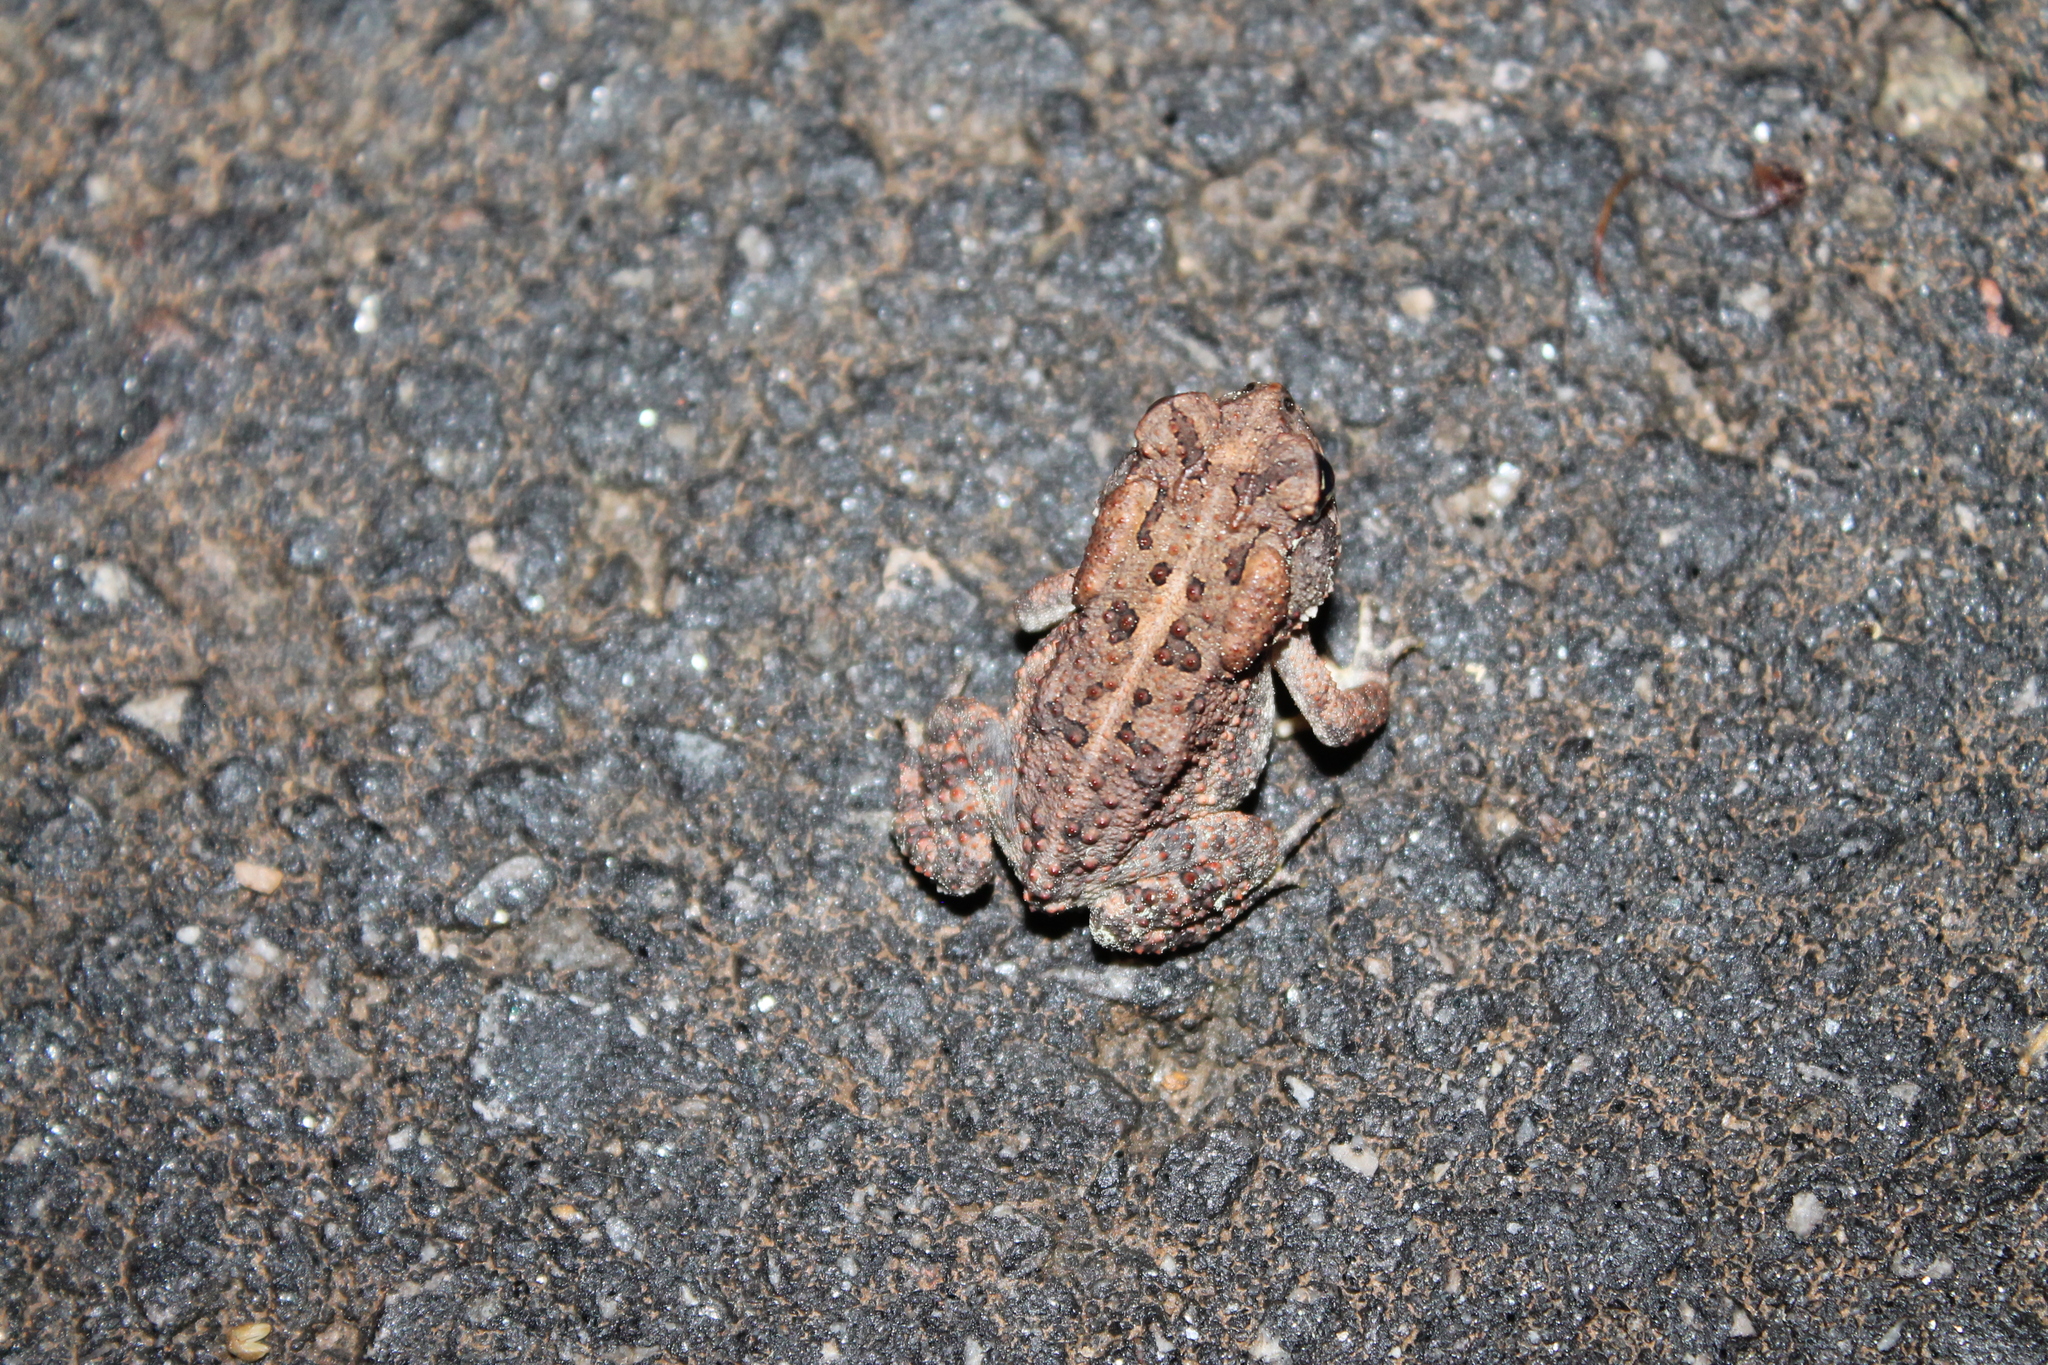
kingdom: Animalia
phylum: Chordata
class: Amphibia
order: Anura
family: Bufonidae
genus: Anaxyrus
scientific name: Anaxyrus terrestris
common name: Southern toad
